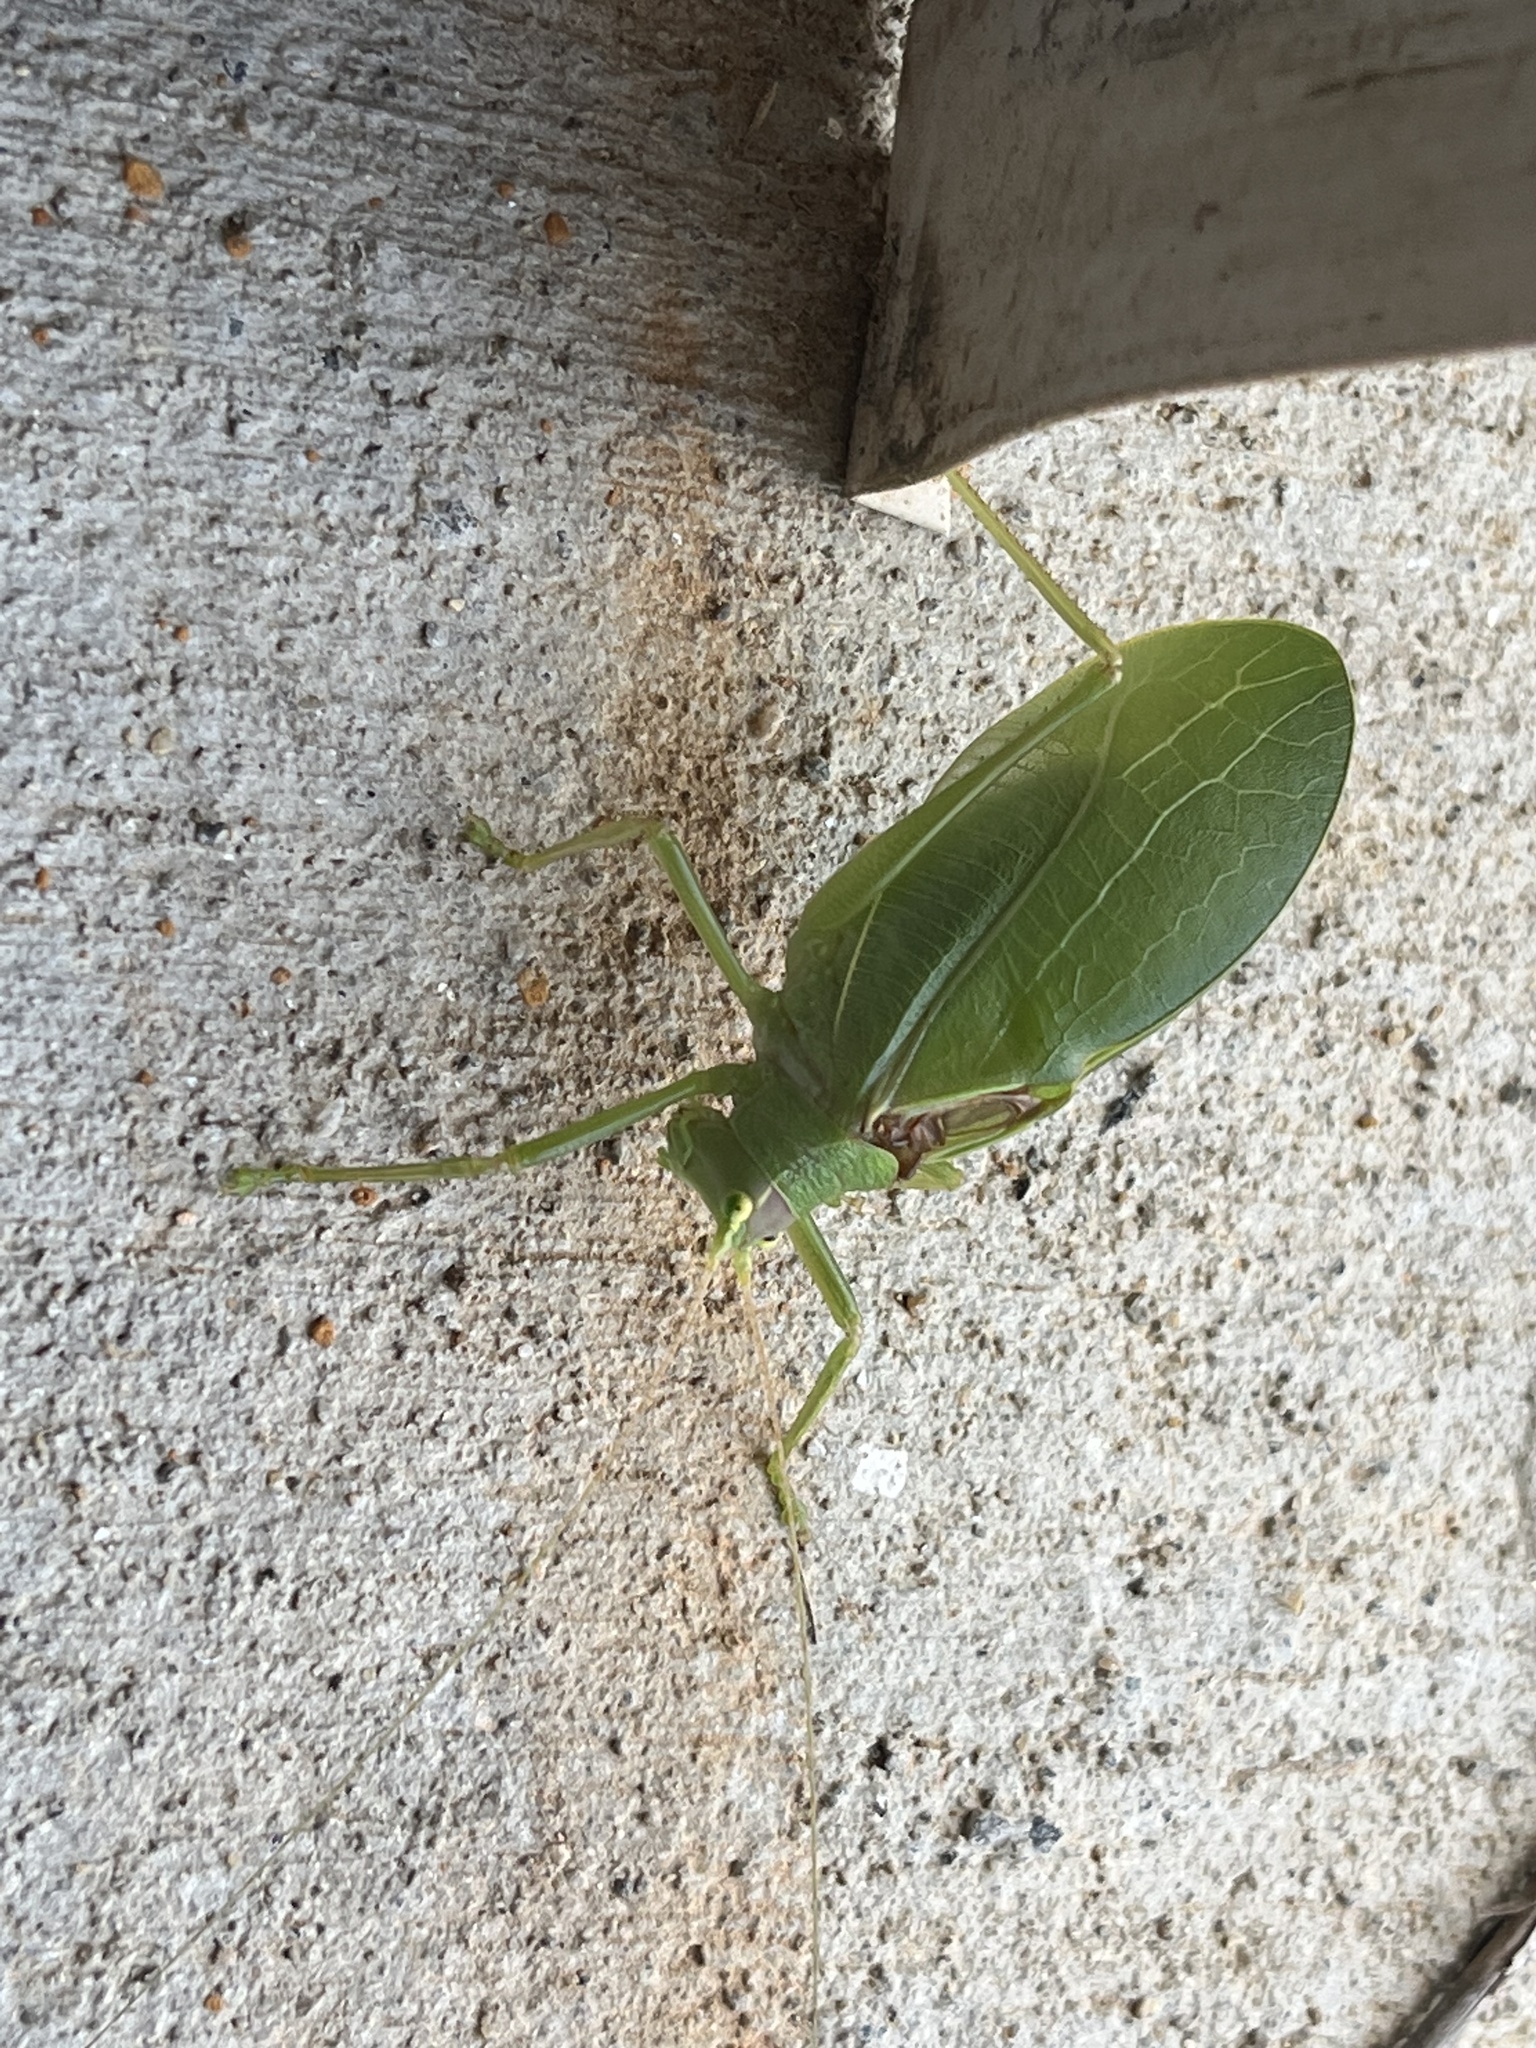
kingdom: Animalia
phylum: Arthropoda
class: Insecta
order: Orthoptera
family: Tettigoniidae
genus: Pterophylla
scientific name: Pterophylla camellifolia
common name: Common true katydid
